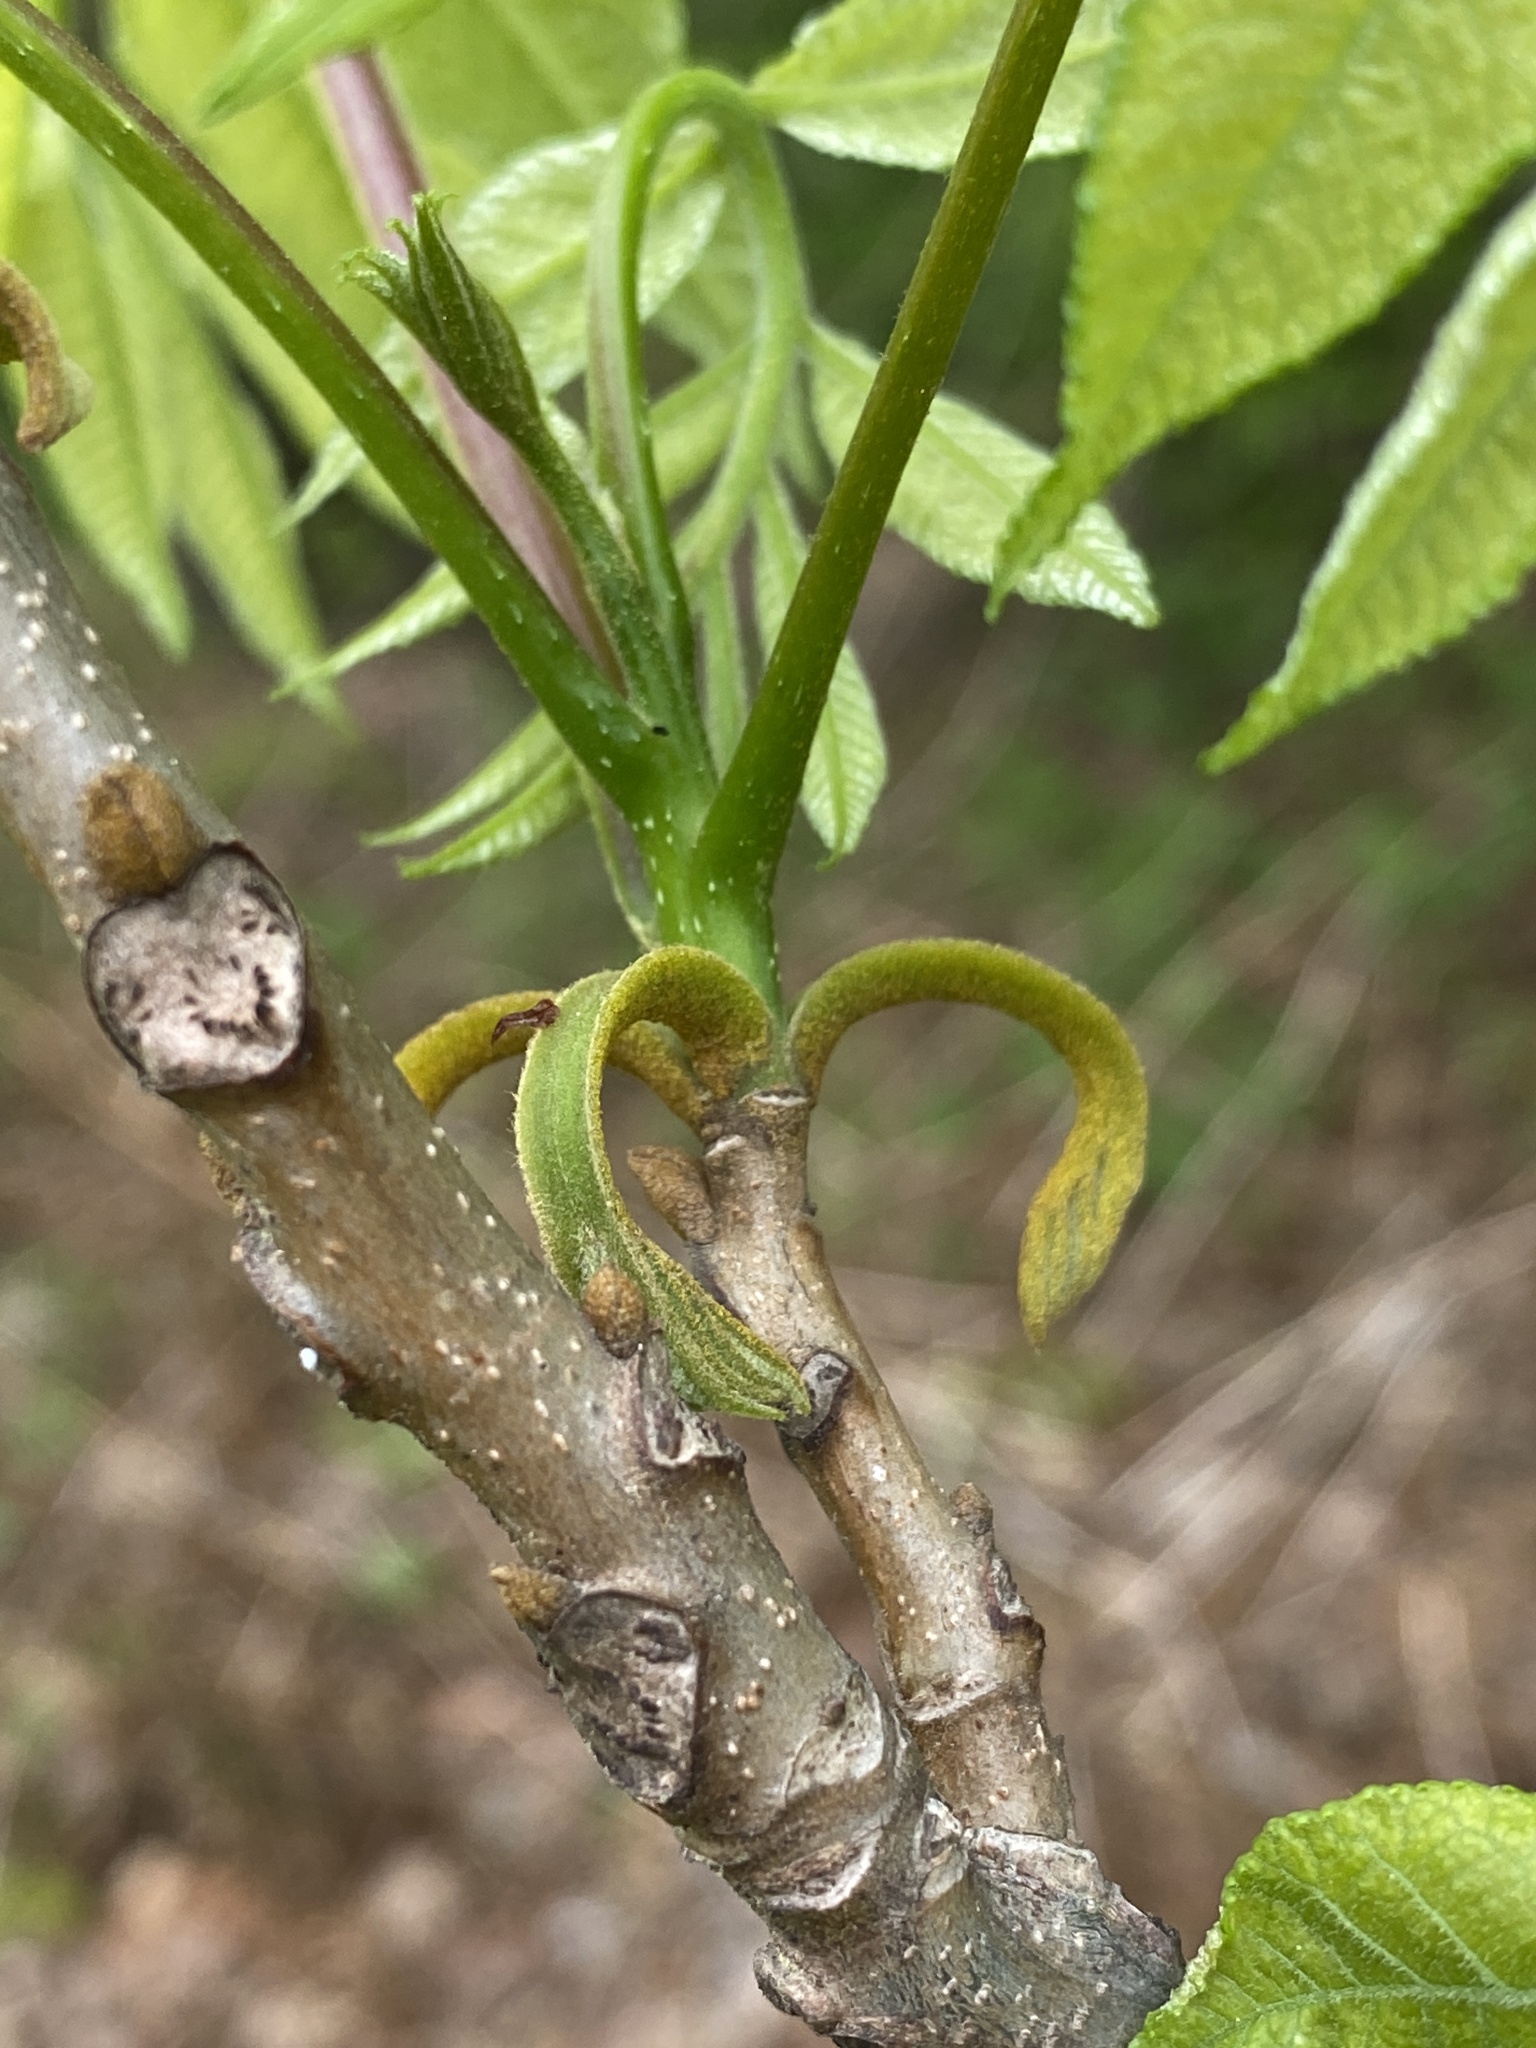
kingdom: Plantae
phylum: Tracheophyta
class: Magnoliopsida
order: Fagales
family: Juglandaceae
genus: Carya
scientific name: Carya cordiformis
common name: Bitternut hickory
